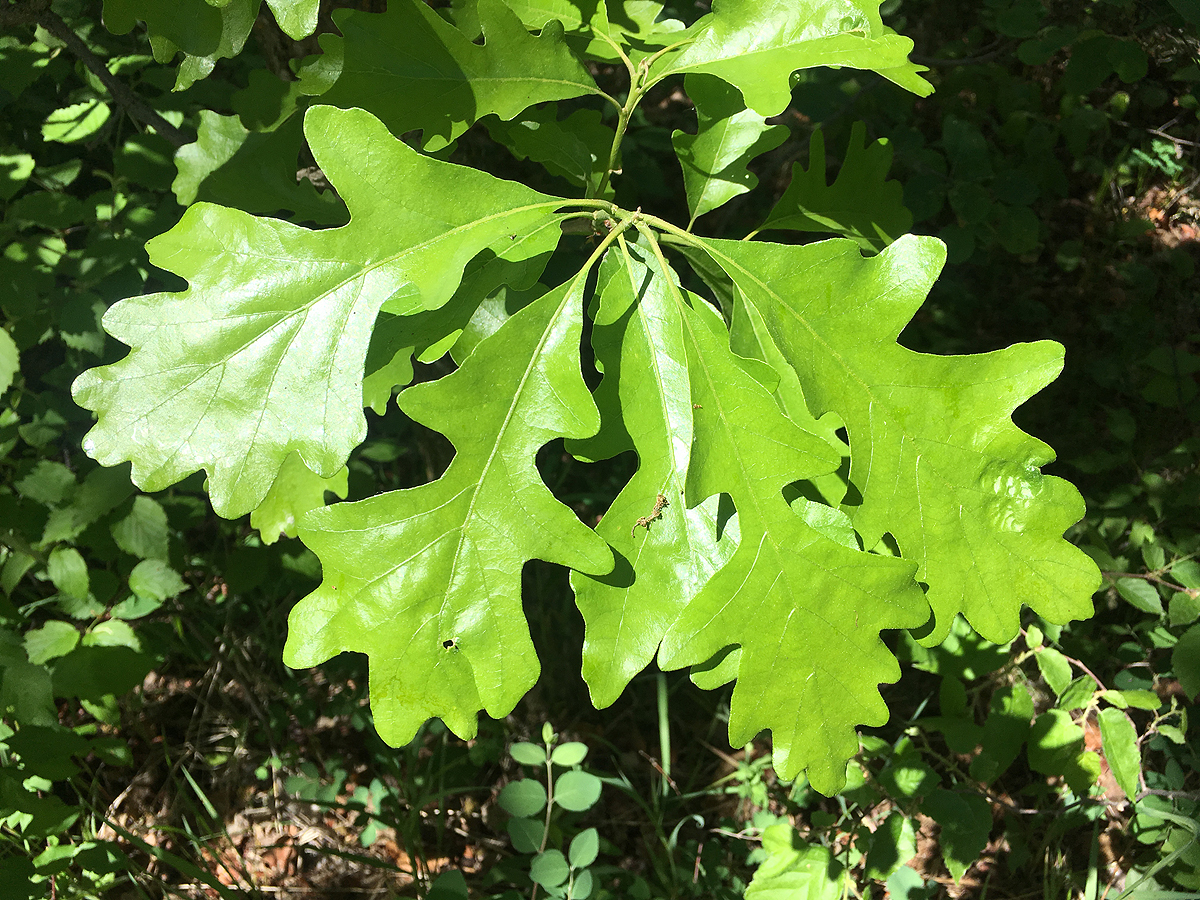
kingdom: Plantae
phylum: Tracheophyta
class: Magnoliopsida
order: Fagales
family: Fagaceae
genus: Quercus
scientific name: Quercus macrocarpa
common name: Bur oak
